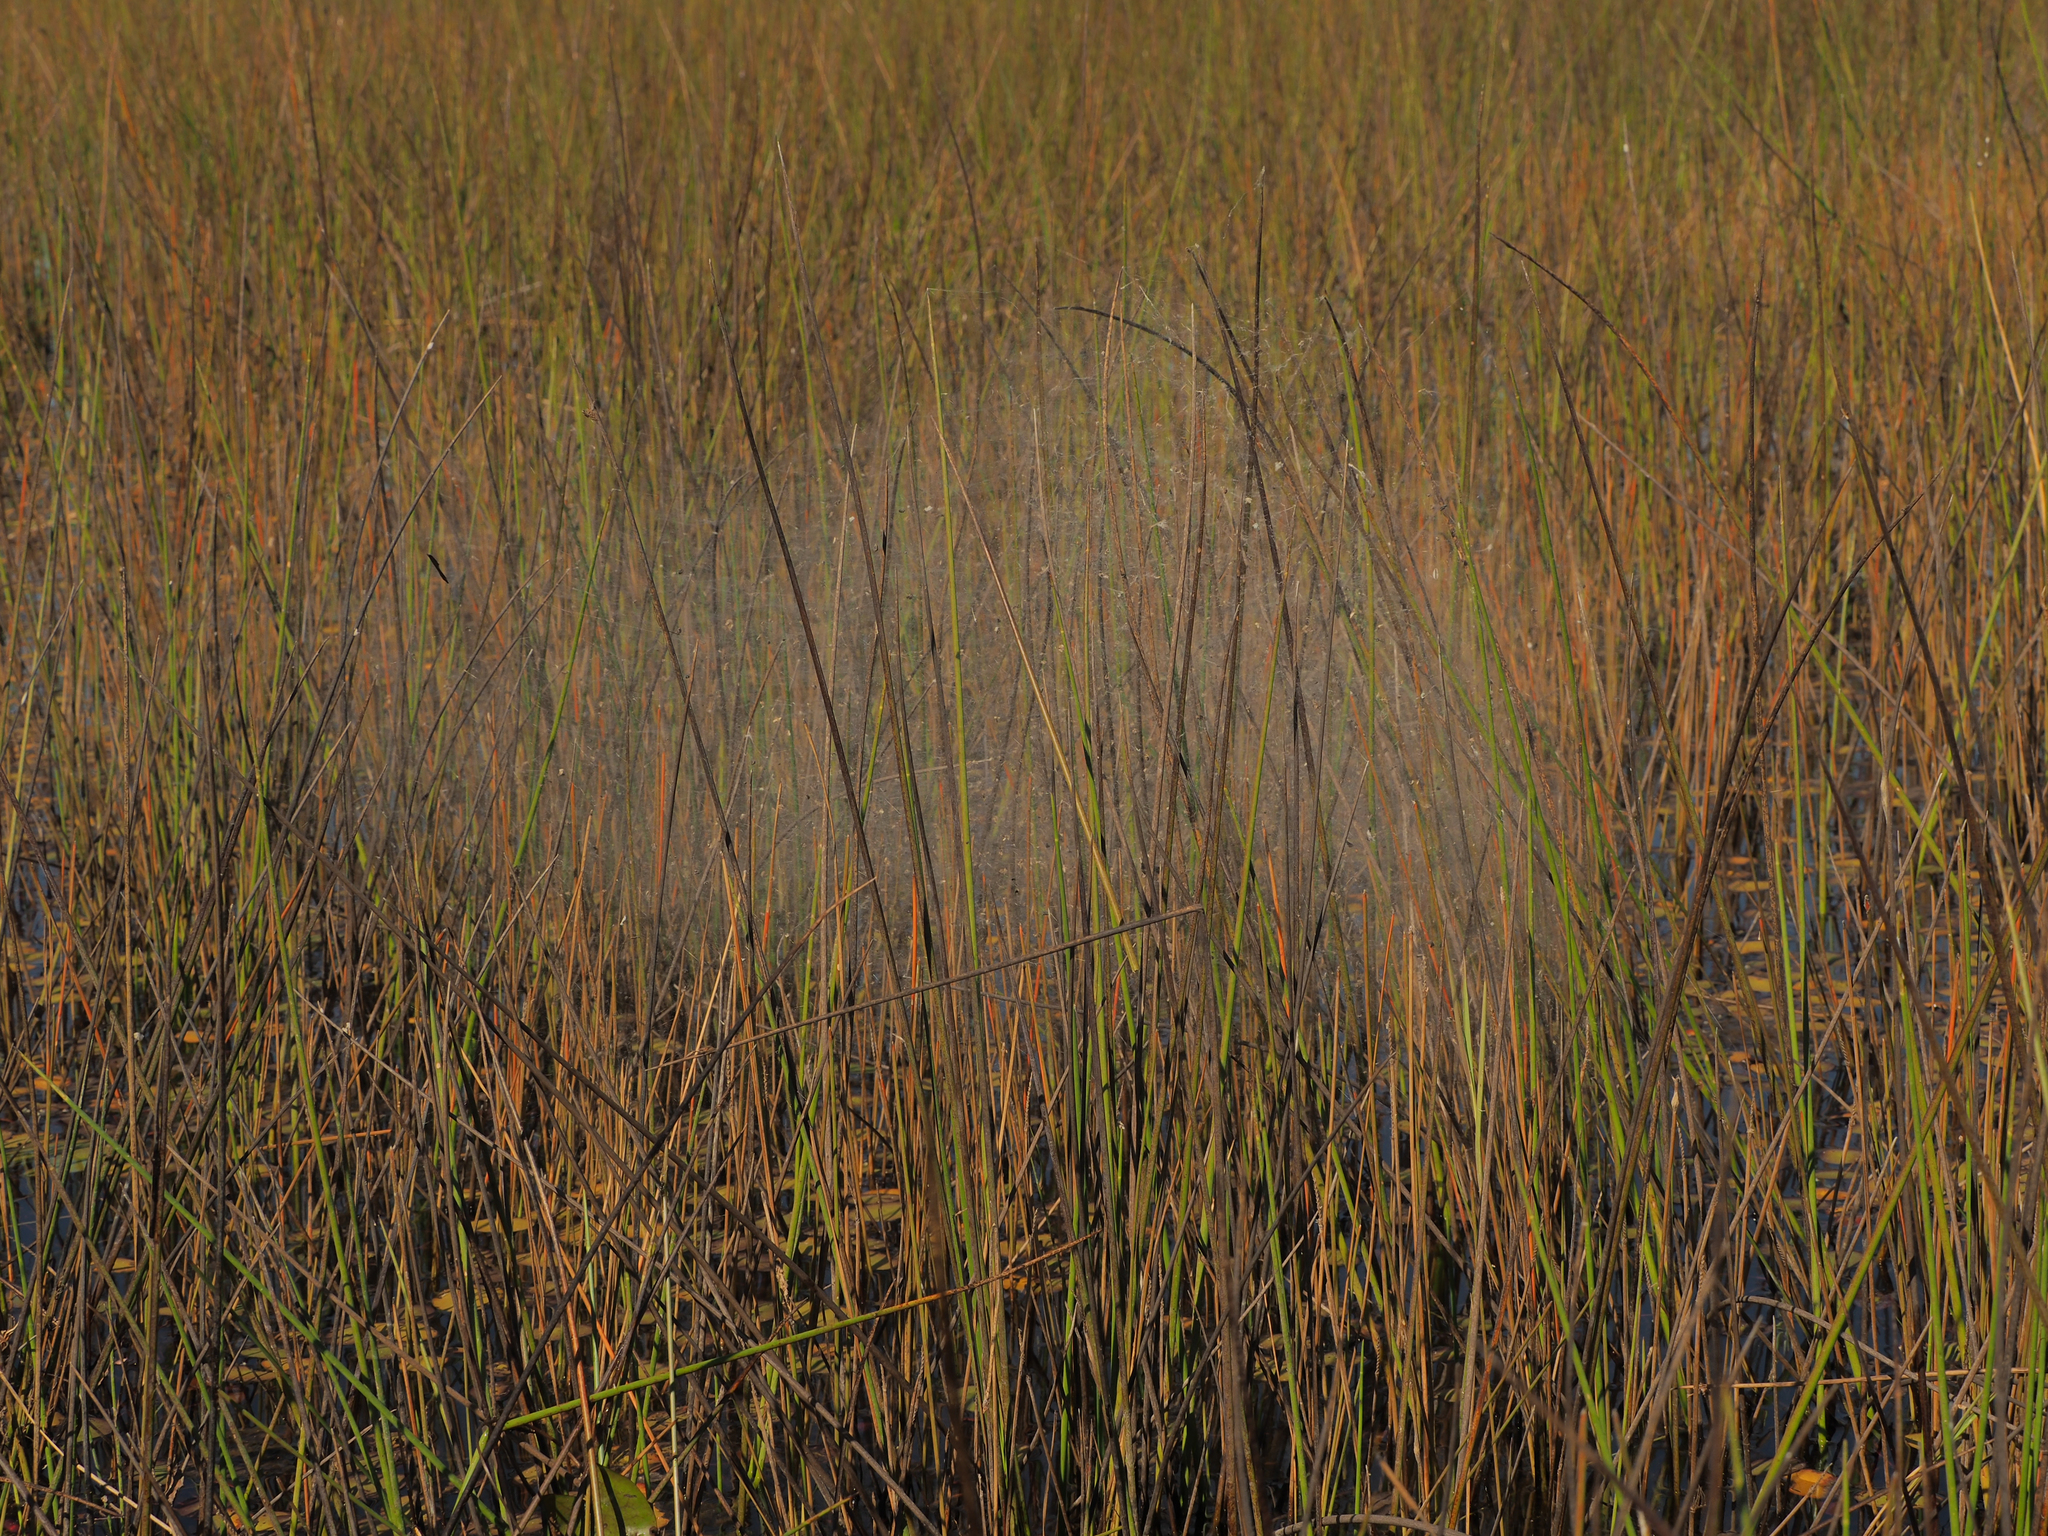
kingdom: Animalia
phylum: Arthropoda
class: Arachnida
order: Araneae
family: Araneidae
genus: Cyrtophora
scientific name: Cyrtophora citricola
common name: Orb weavers
